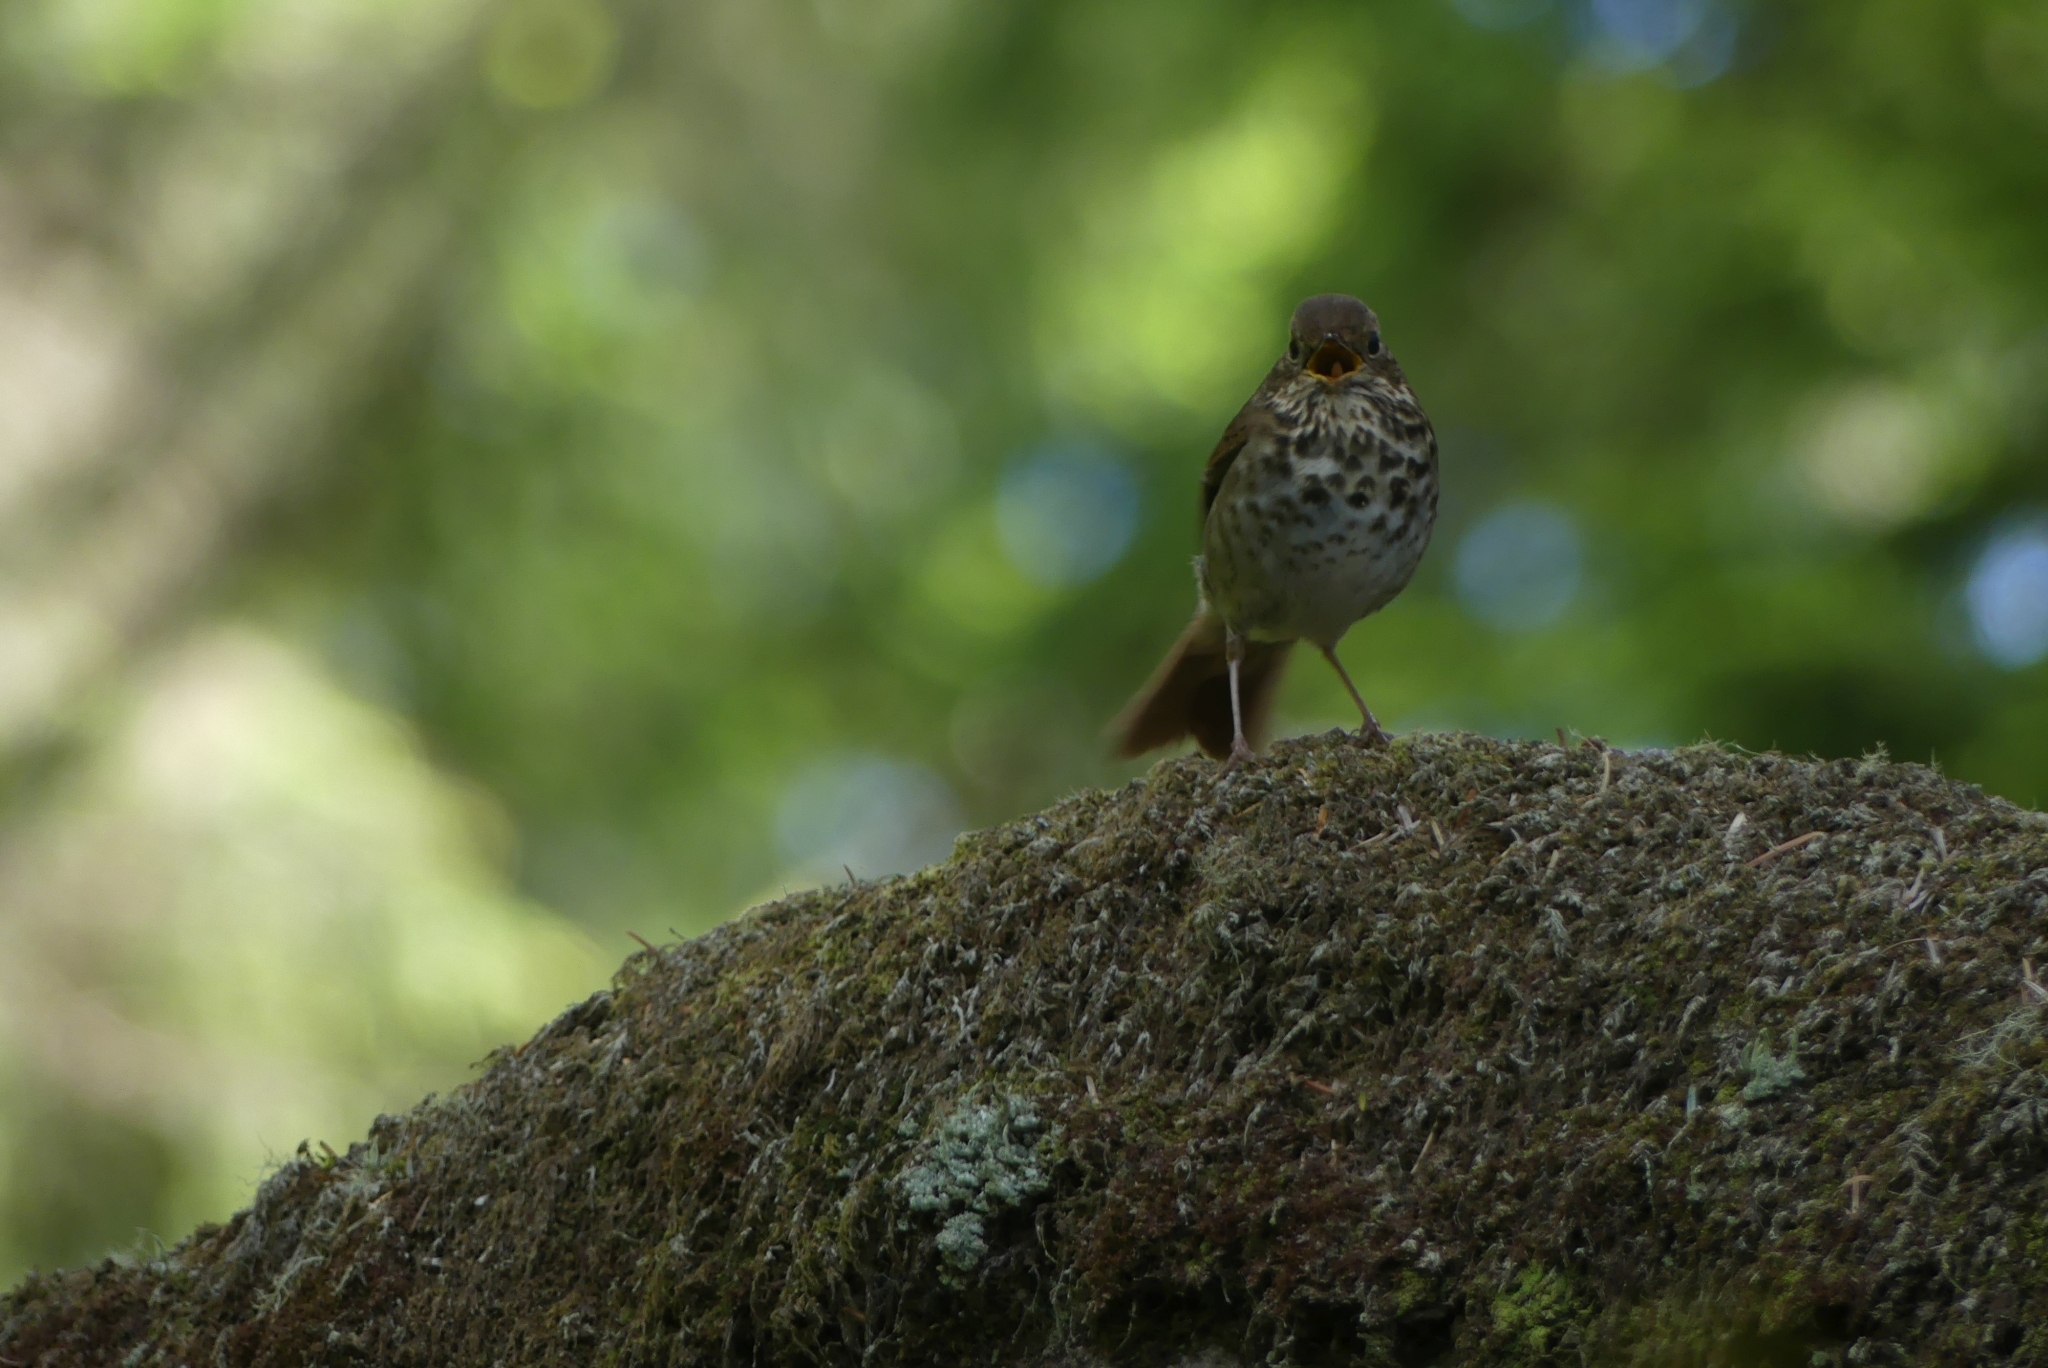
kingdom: Animalia
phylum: Chordata
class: Aves
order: Passeriformes
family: Turdidae
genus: Catharus
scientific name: Catharus guttatus
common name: Hermit thrush
